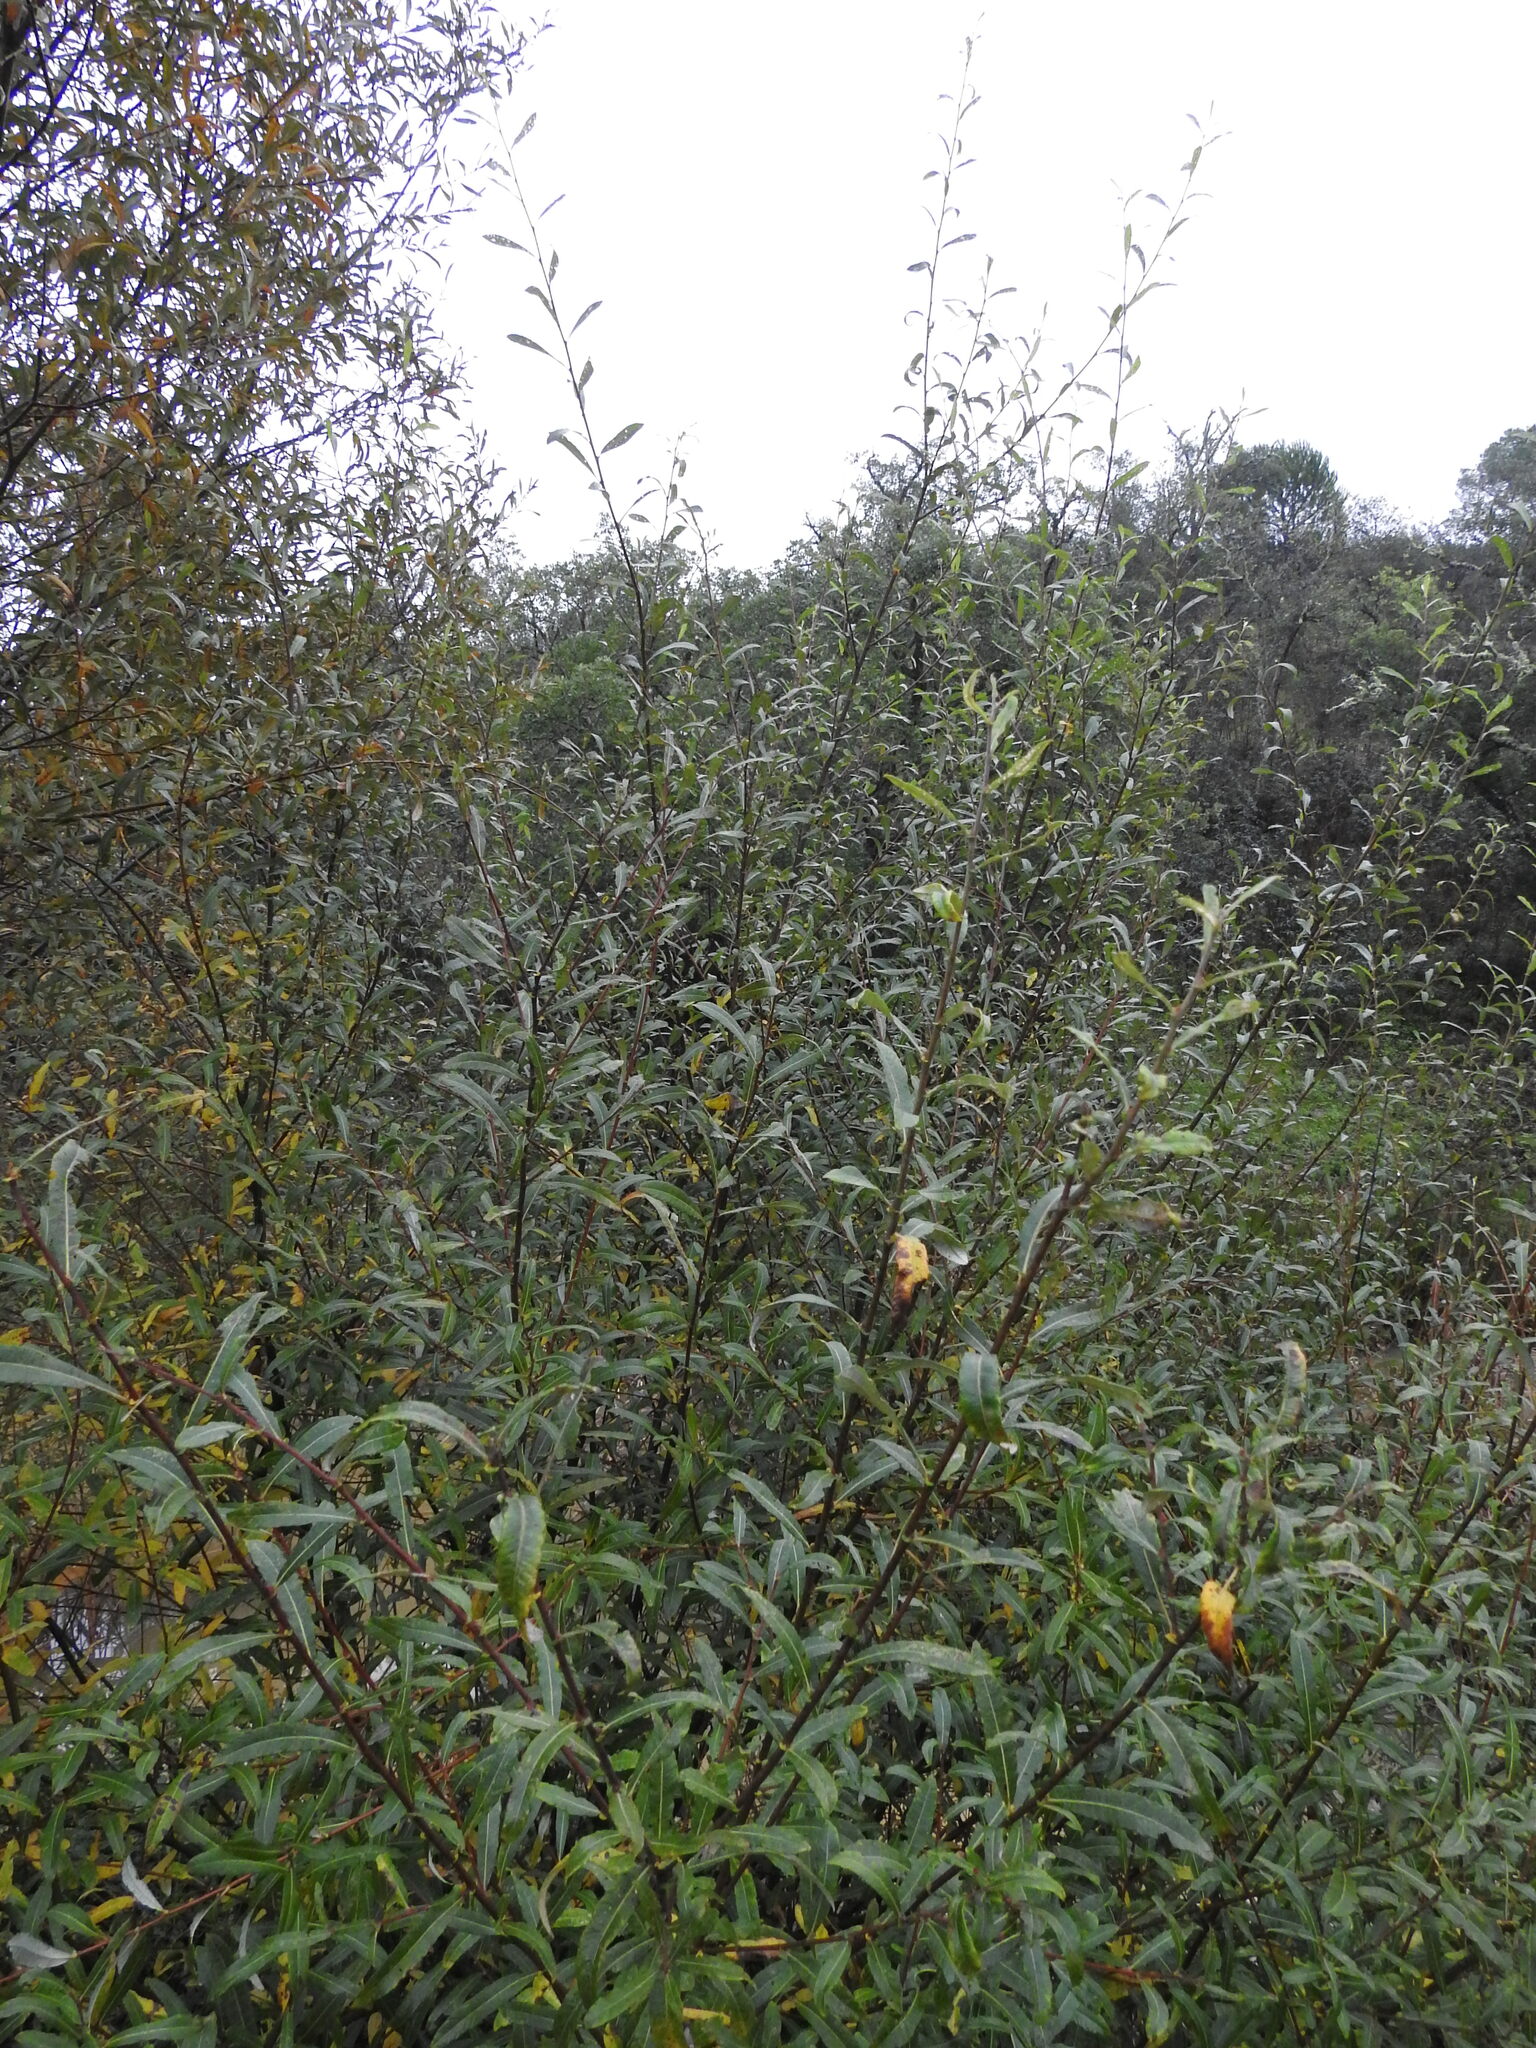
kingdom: Plantae
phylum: Tracheophyta
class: Magnoliopsida
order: Malpighiales
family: Salicaceae
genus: Salix
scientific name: Salix salviifolia
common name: Salvia-leaf willow
